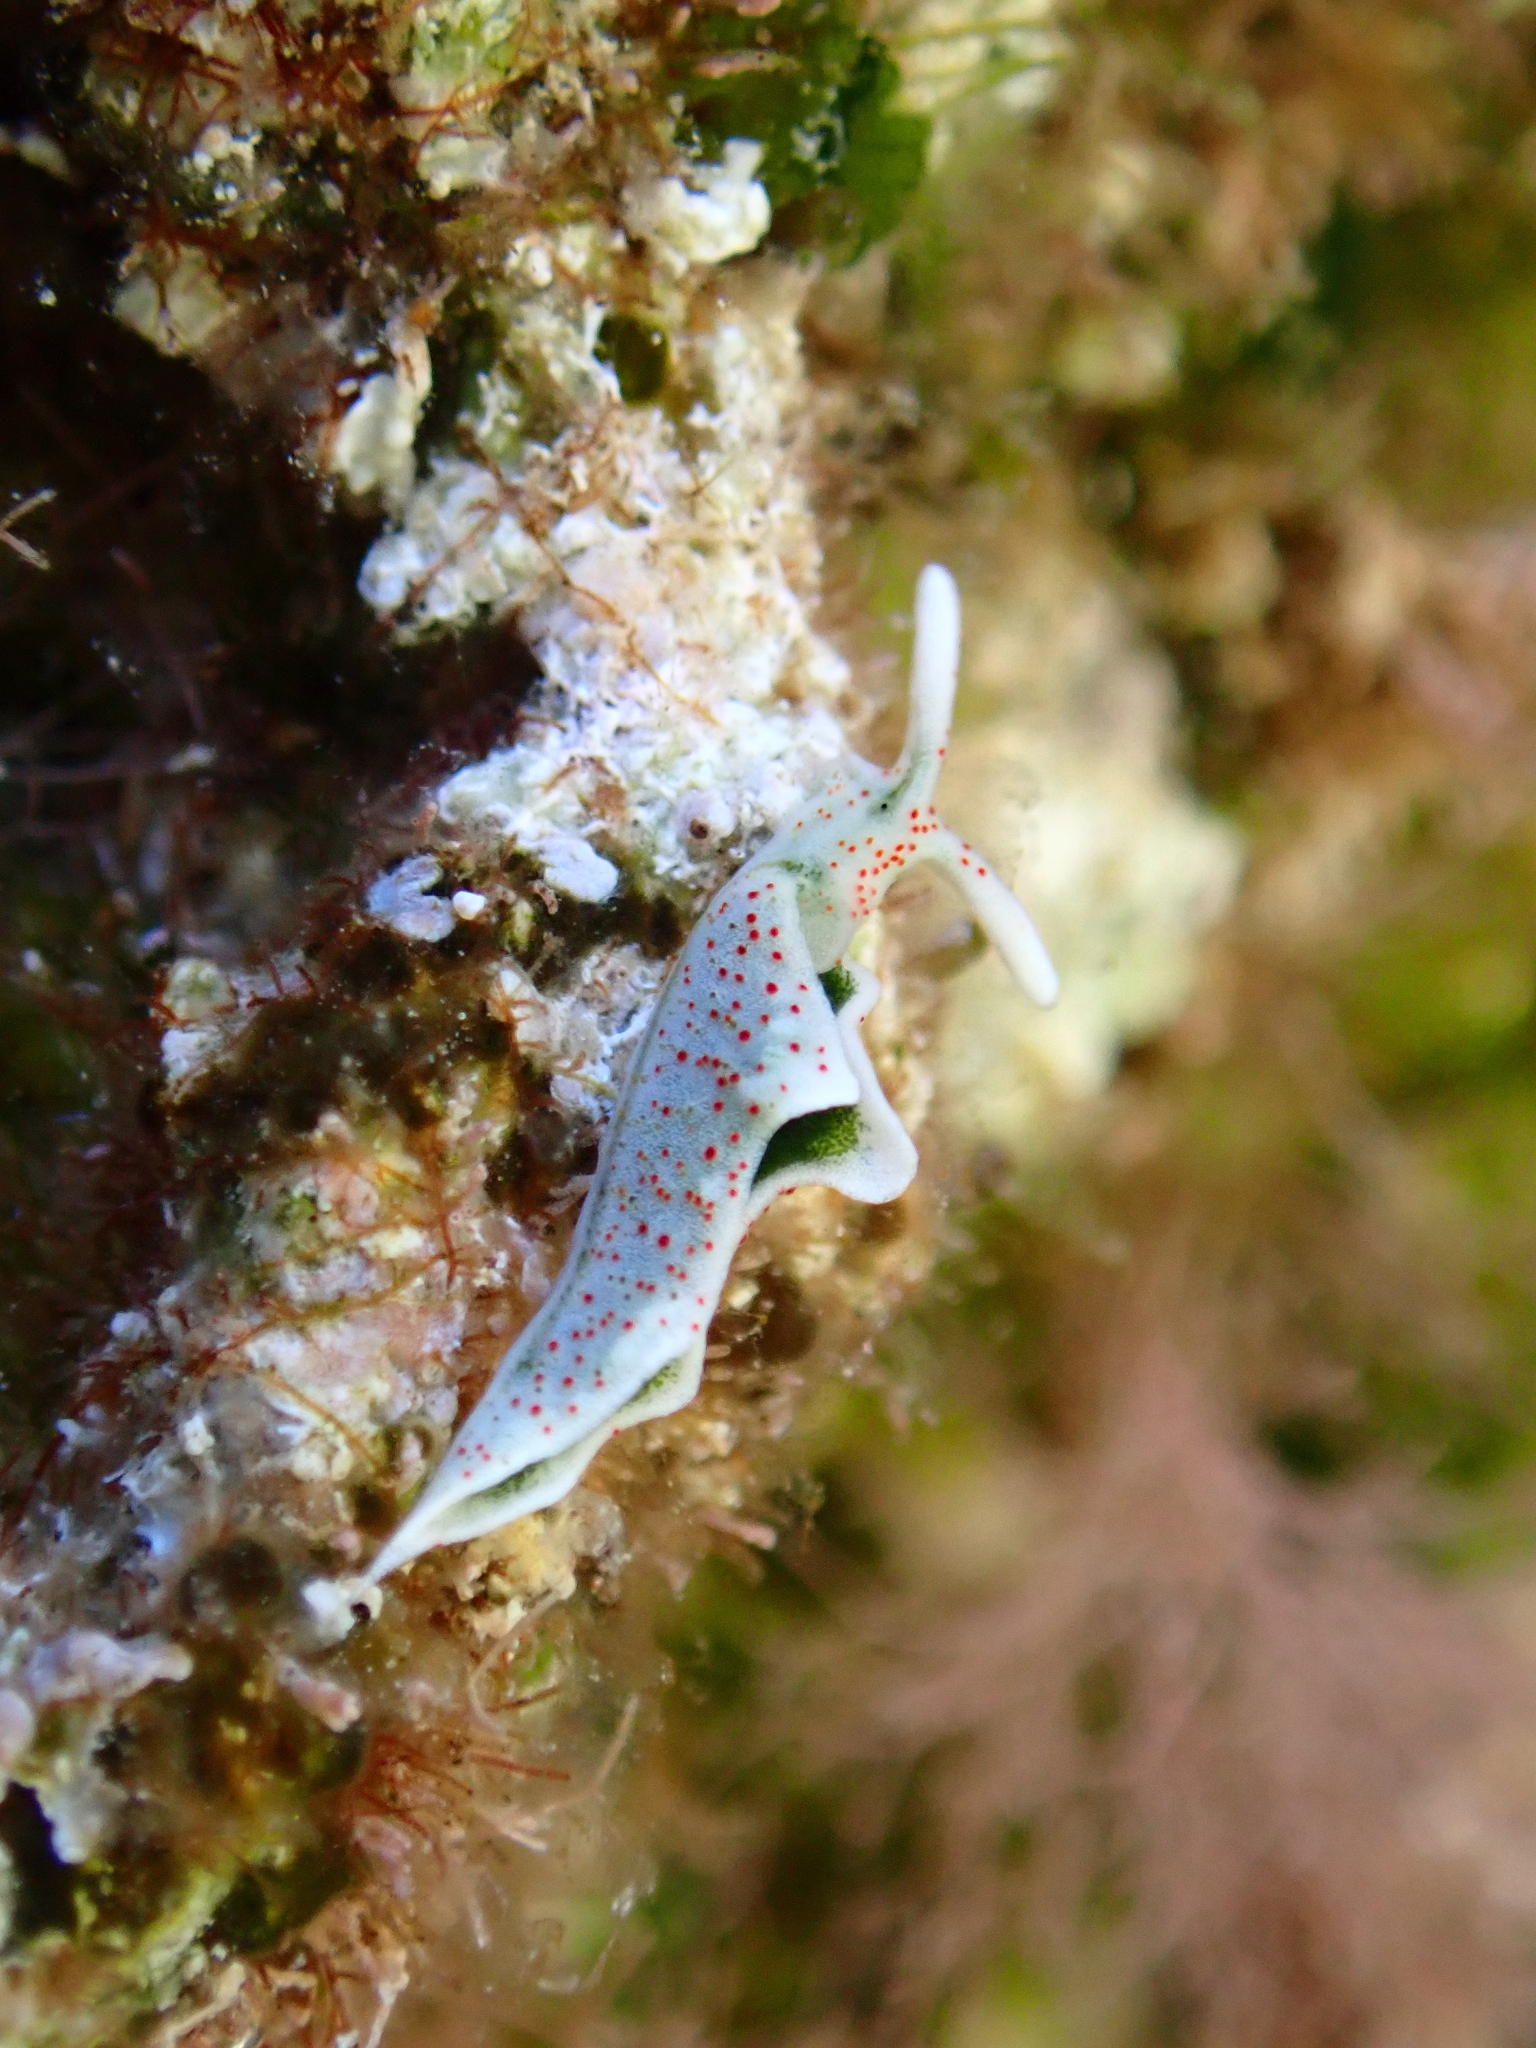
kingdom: Animalia
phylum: Mollusca
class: Gastropoda
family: Plakobranchidae
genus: Elysia
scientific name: Elysia timida
